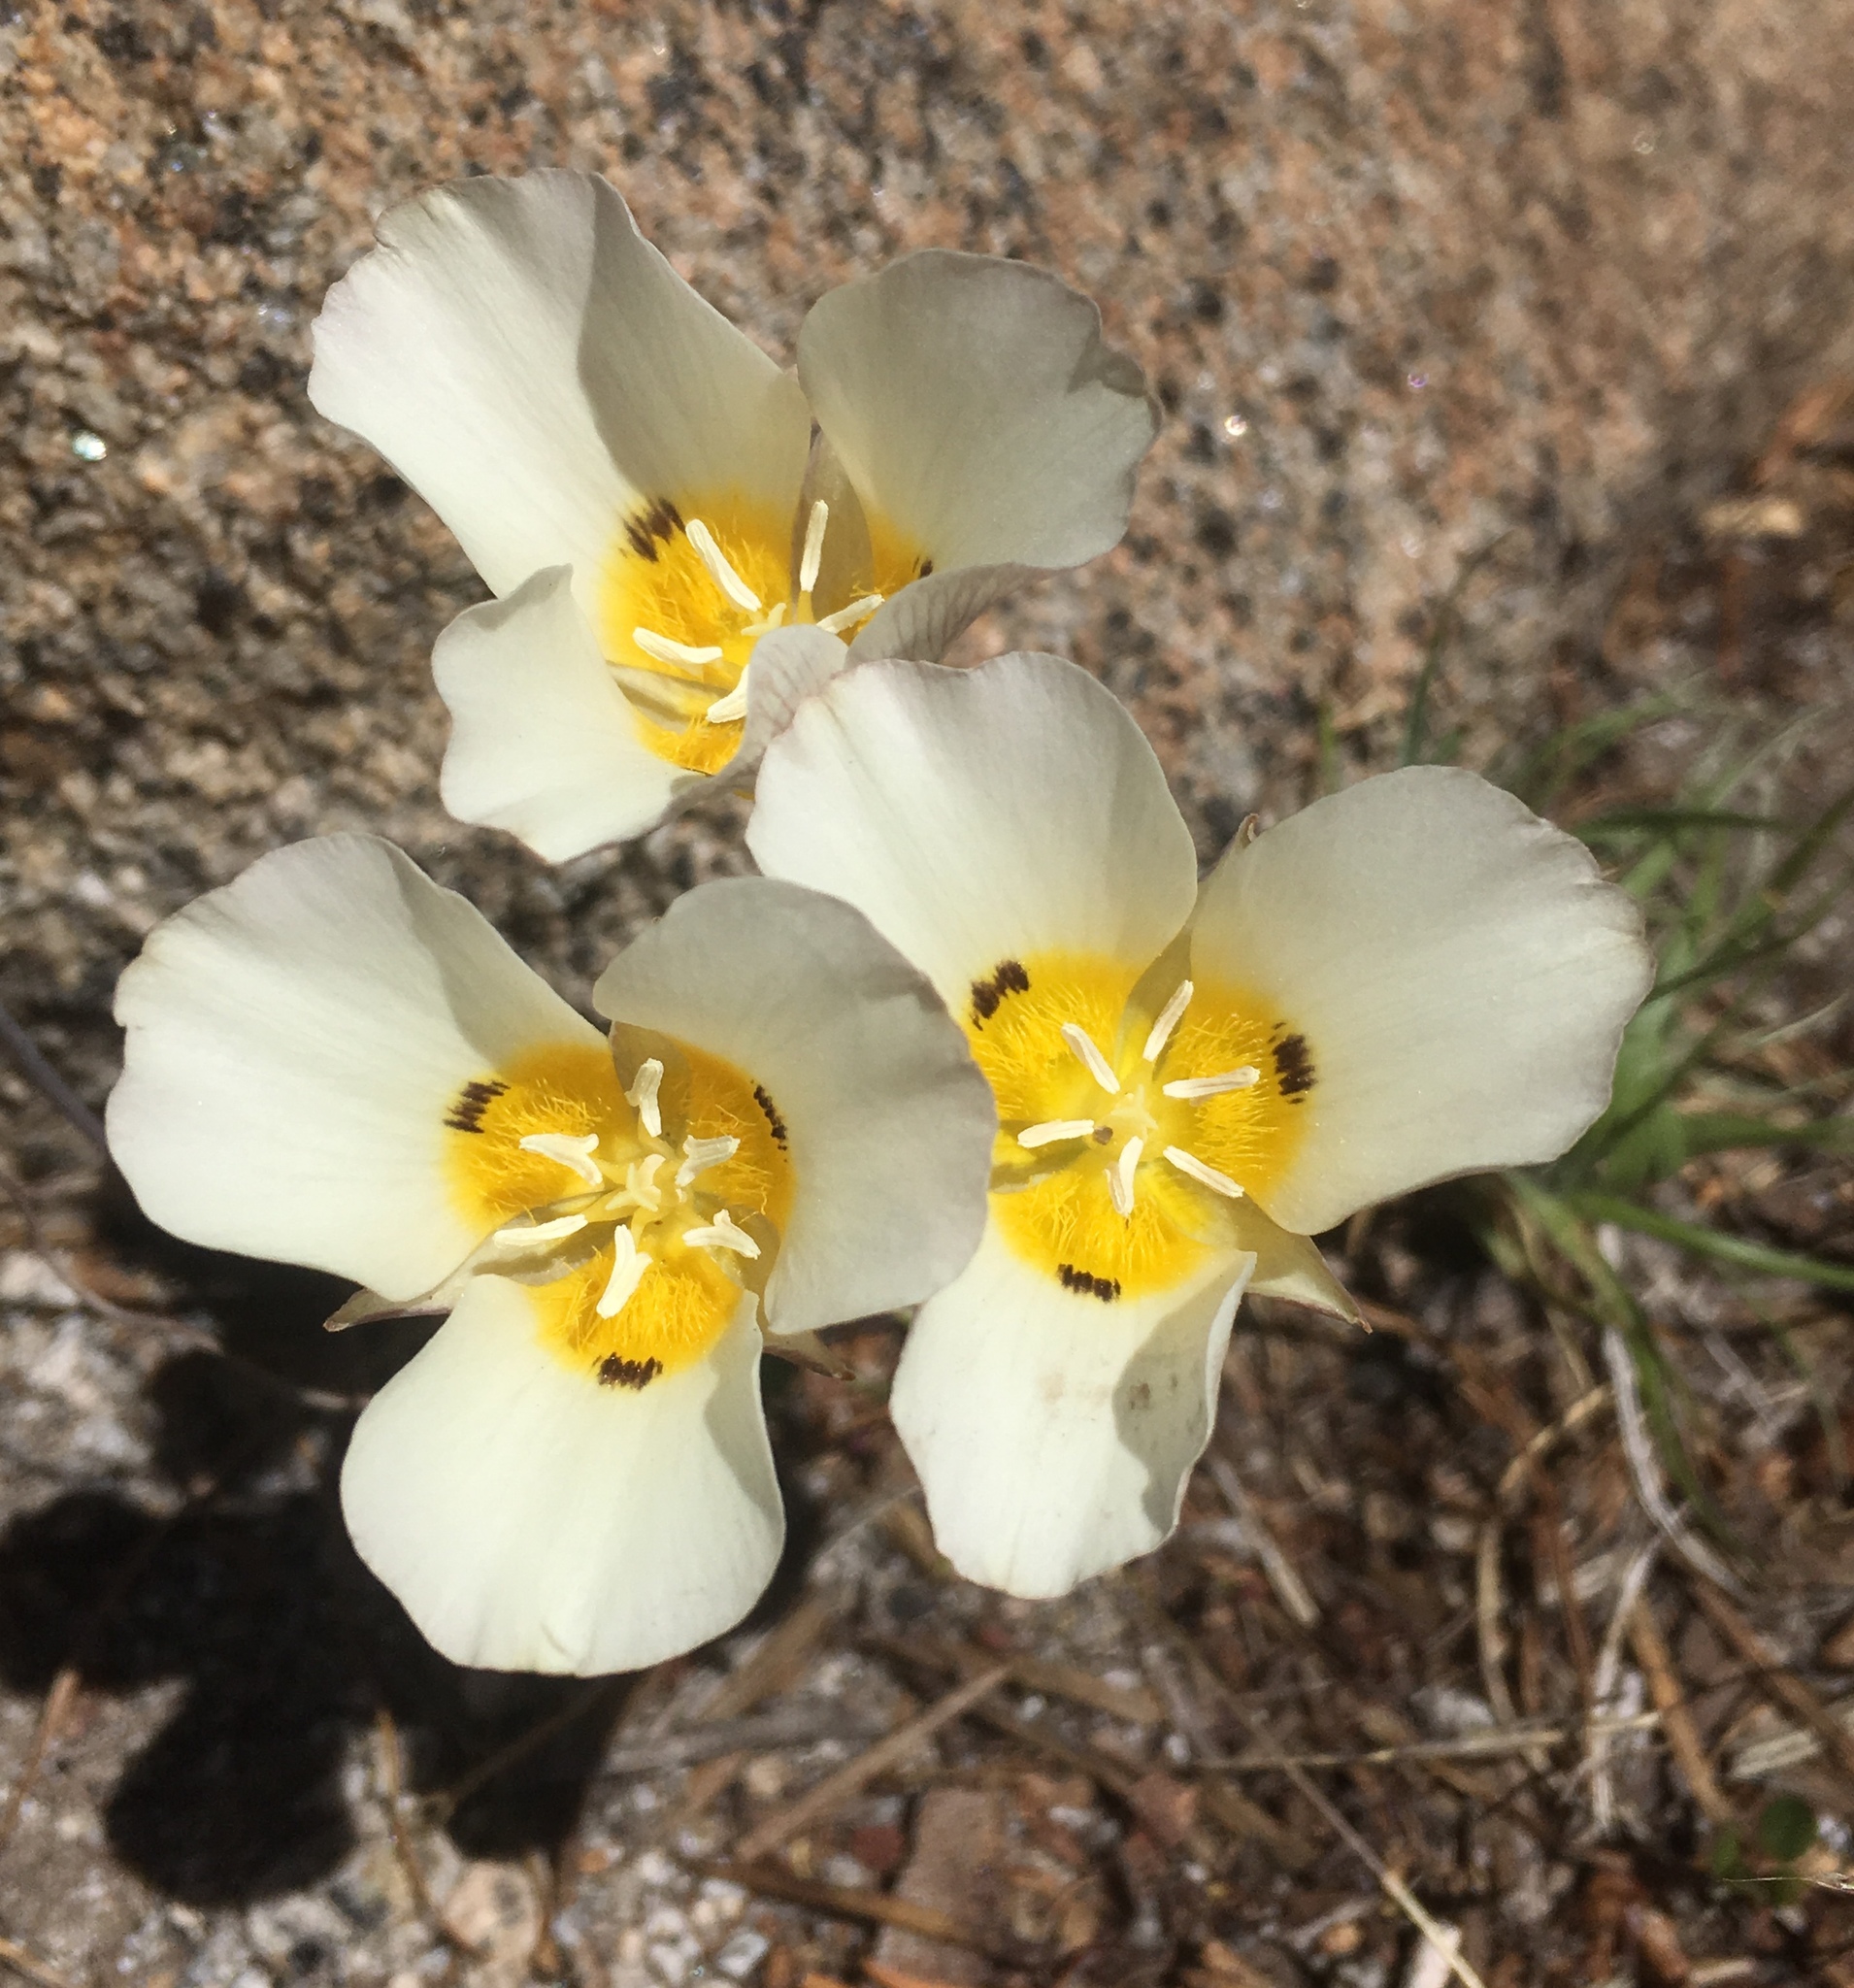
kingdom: Plantae
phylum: Tracheophyta
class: Liliopsida
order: Liliales
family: Liliaceae
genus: Calochortus
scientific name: Calochortus leichtlinii
